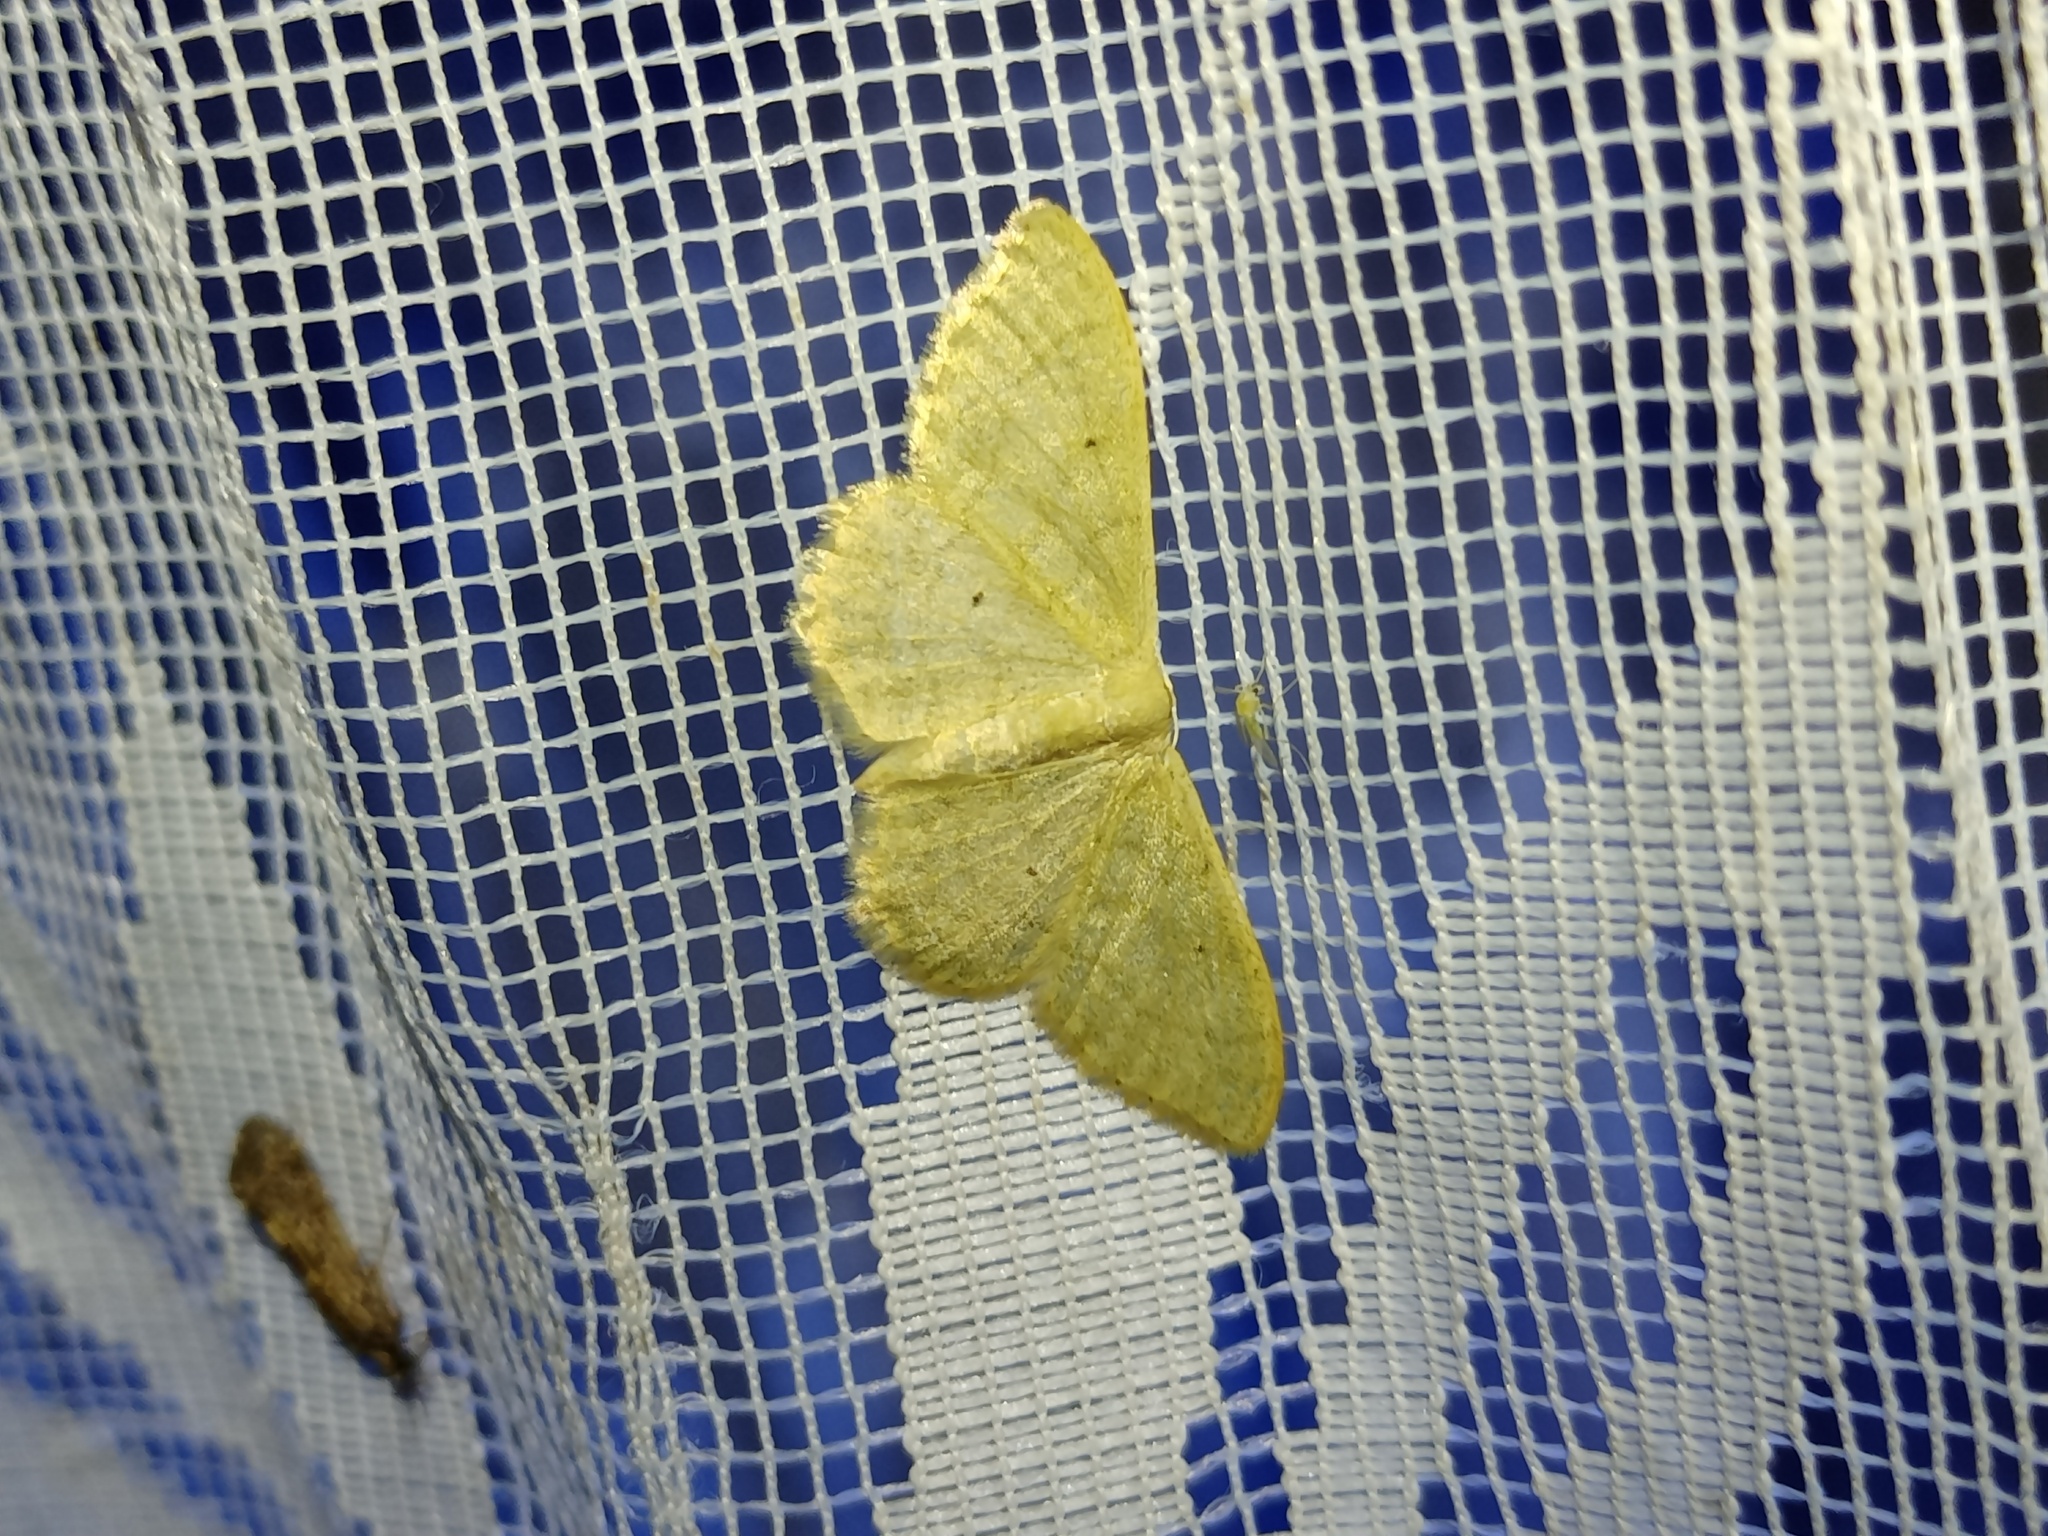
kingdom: Animalia
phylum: Arthropoda
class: Insecta
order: Lepidoptera
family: Geometridae
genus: Idaea
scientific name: Idaea straminata
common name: Plain wave
